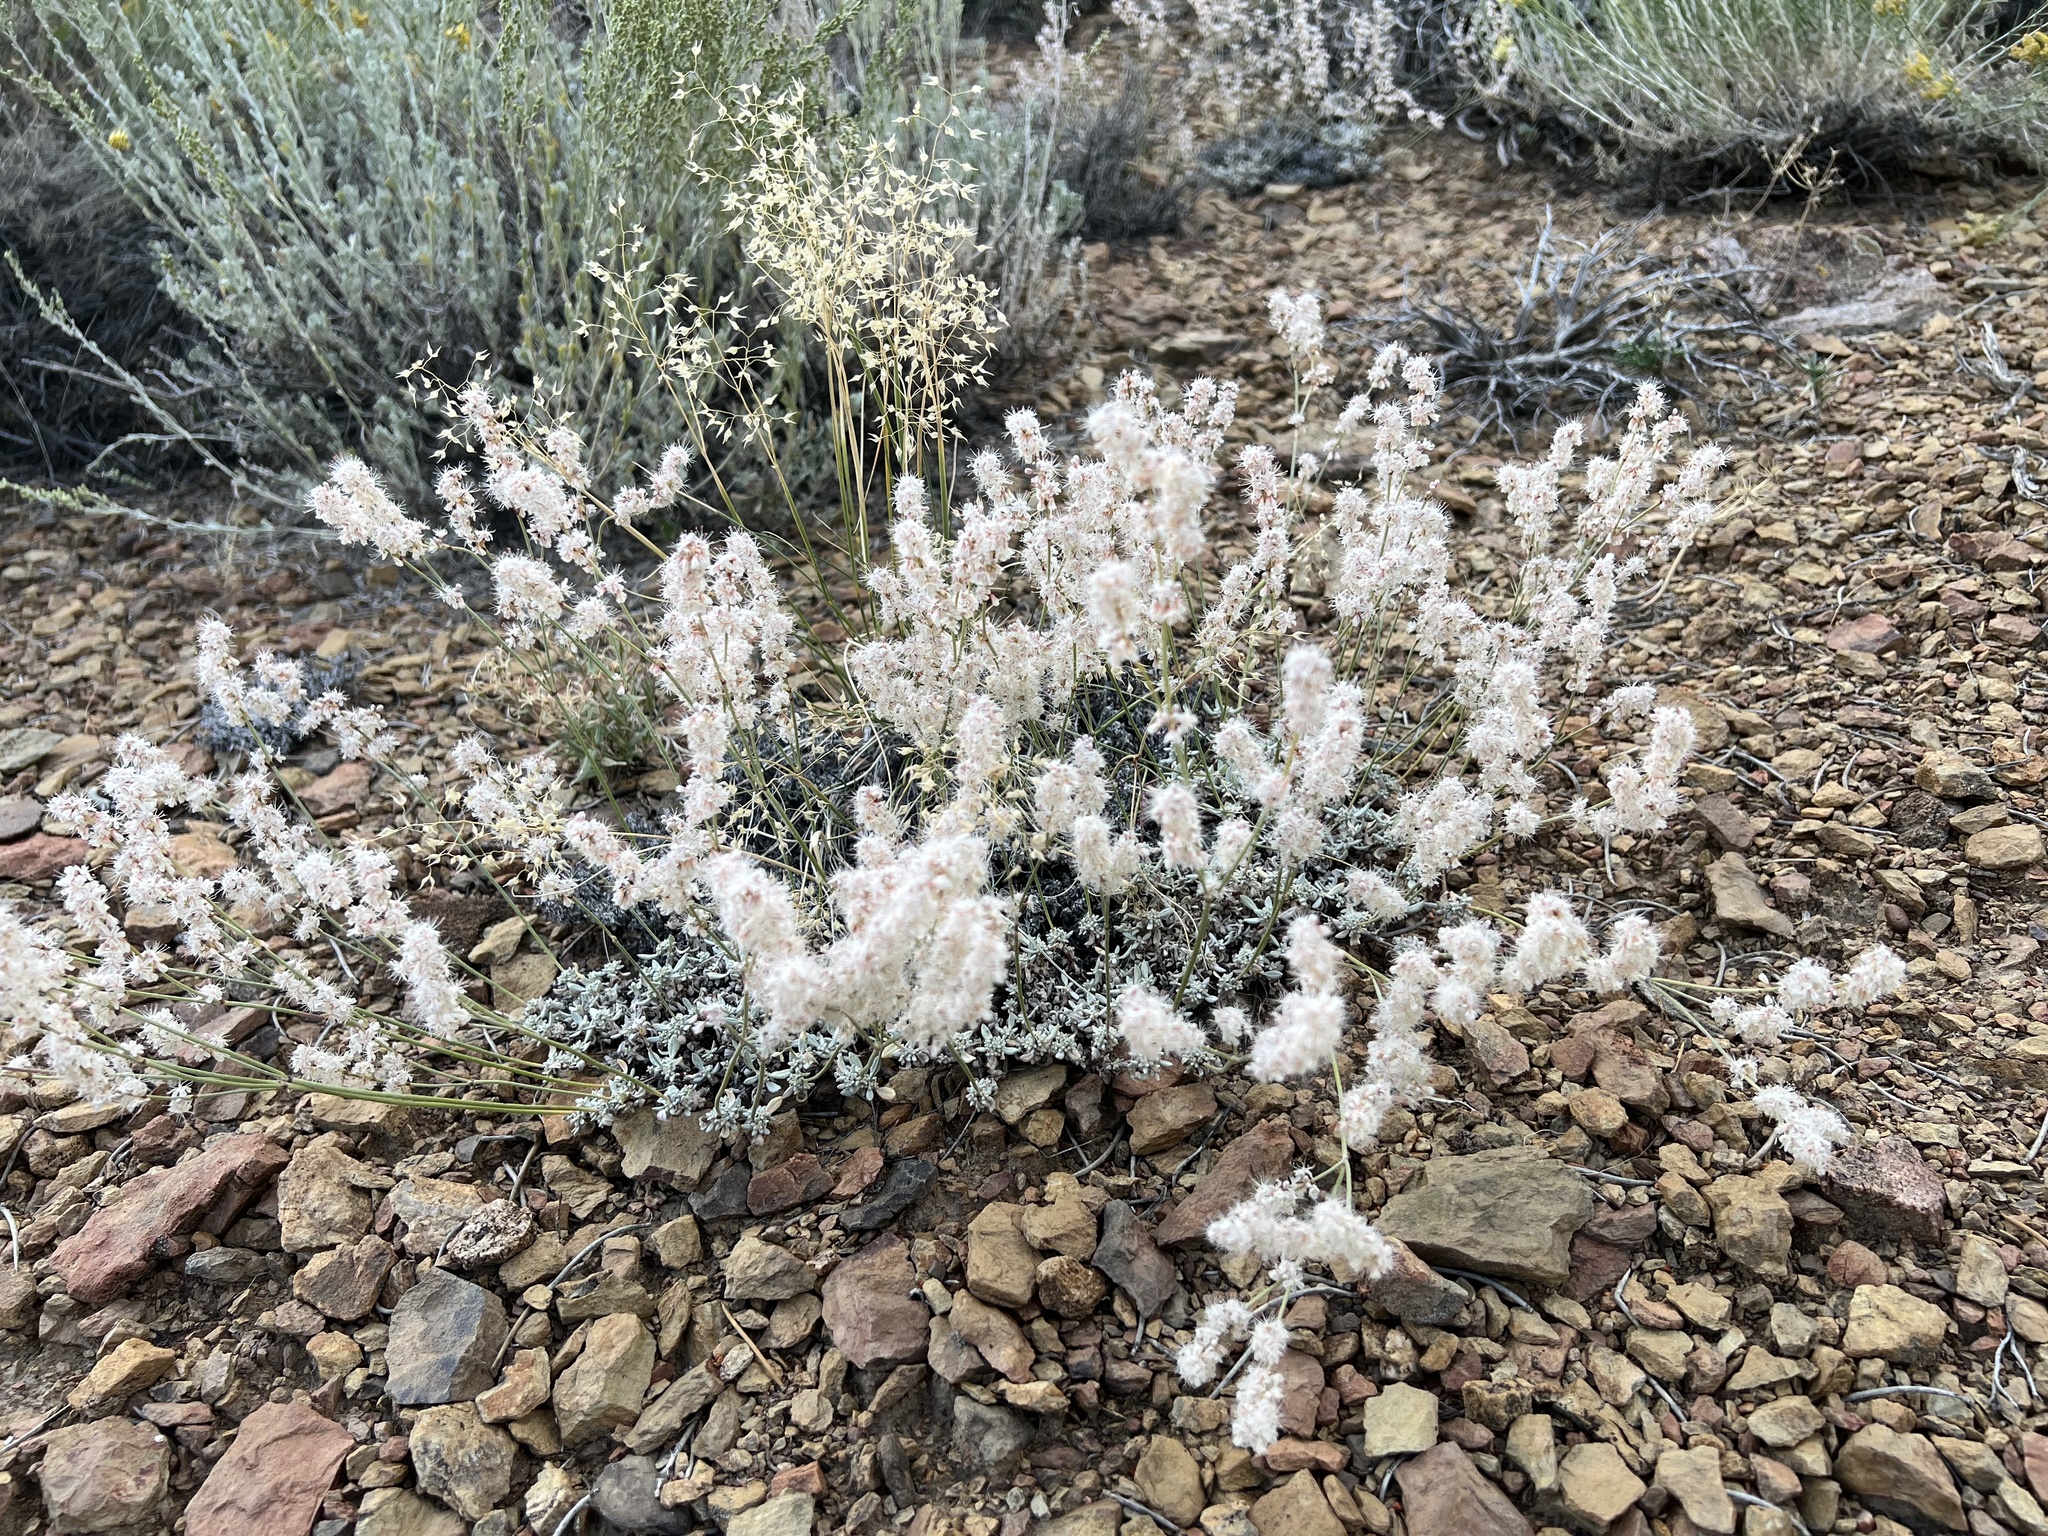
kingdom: Plantae
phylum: Tracheophyta
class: Magnoliopsida
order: Caryophyllales
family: Polygonaceae
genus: Eriogonum
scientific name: Eriogonum wrightii
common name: Bastard-sage
